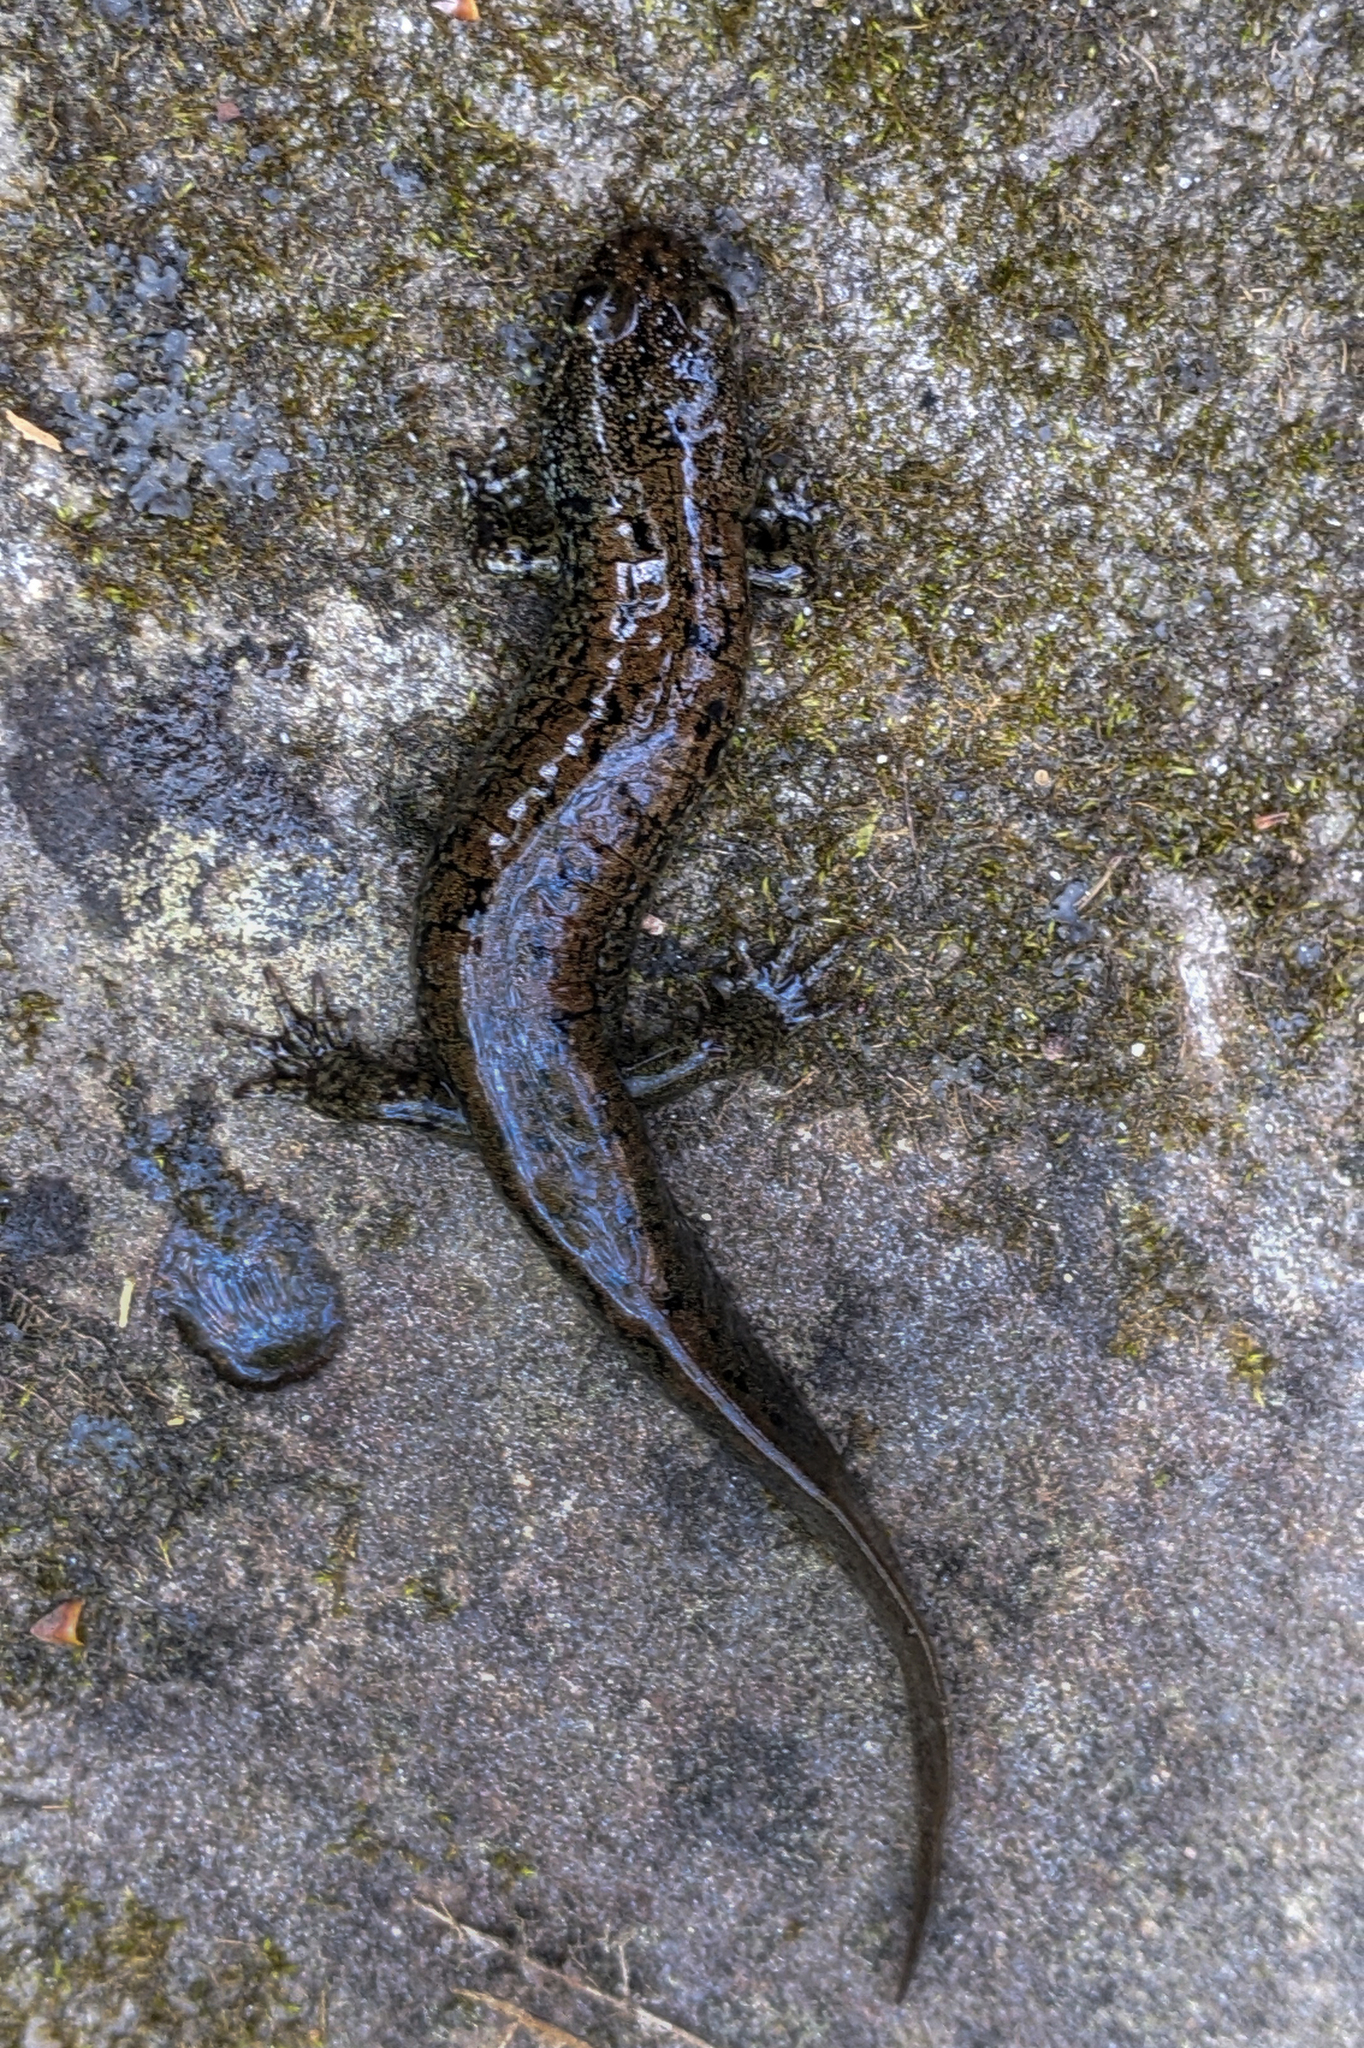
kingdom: Animalia
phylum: Chordata
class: Amphibia
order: Caudata
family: Plethodontidae
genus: Desmognathus
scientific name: Desmognathus
